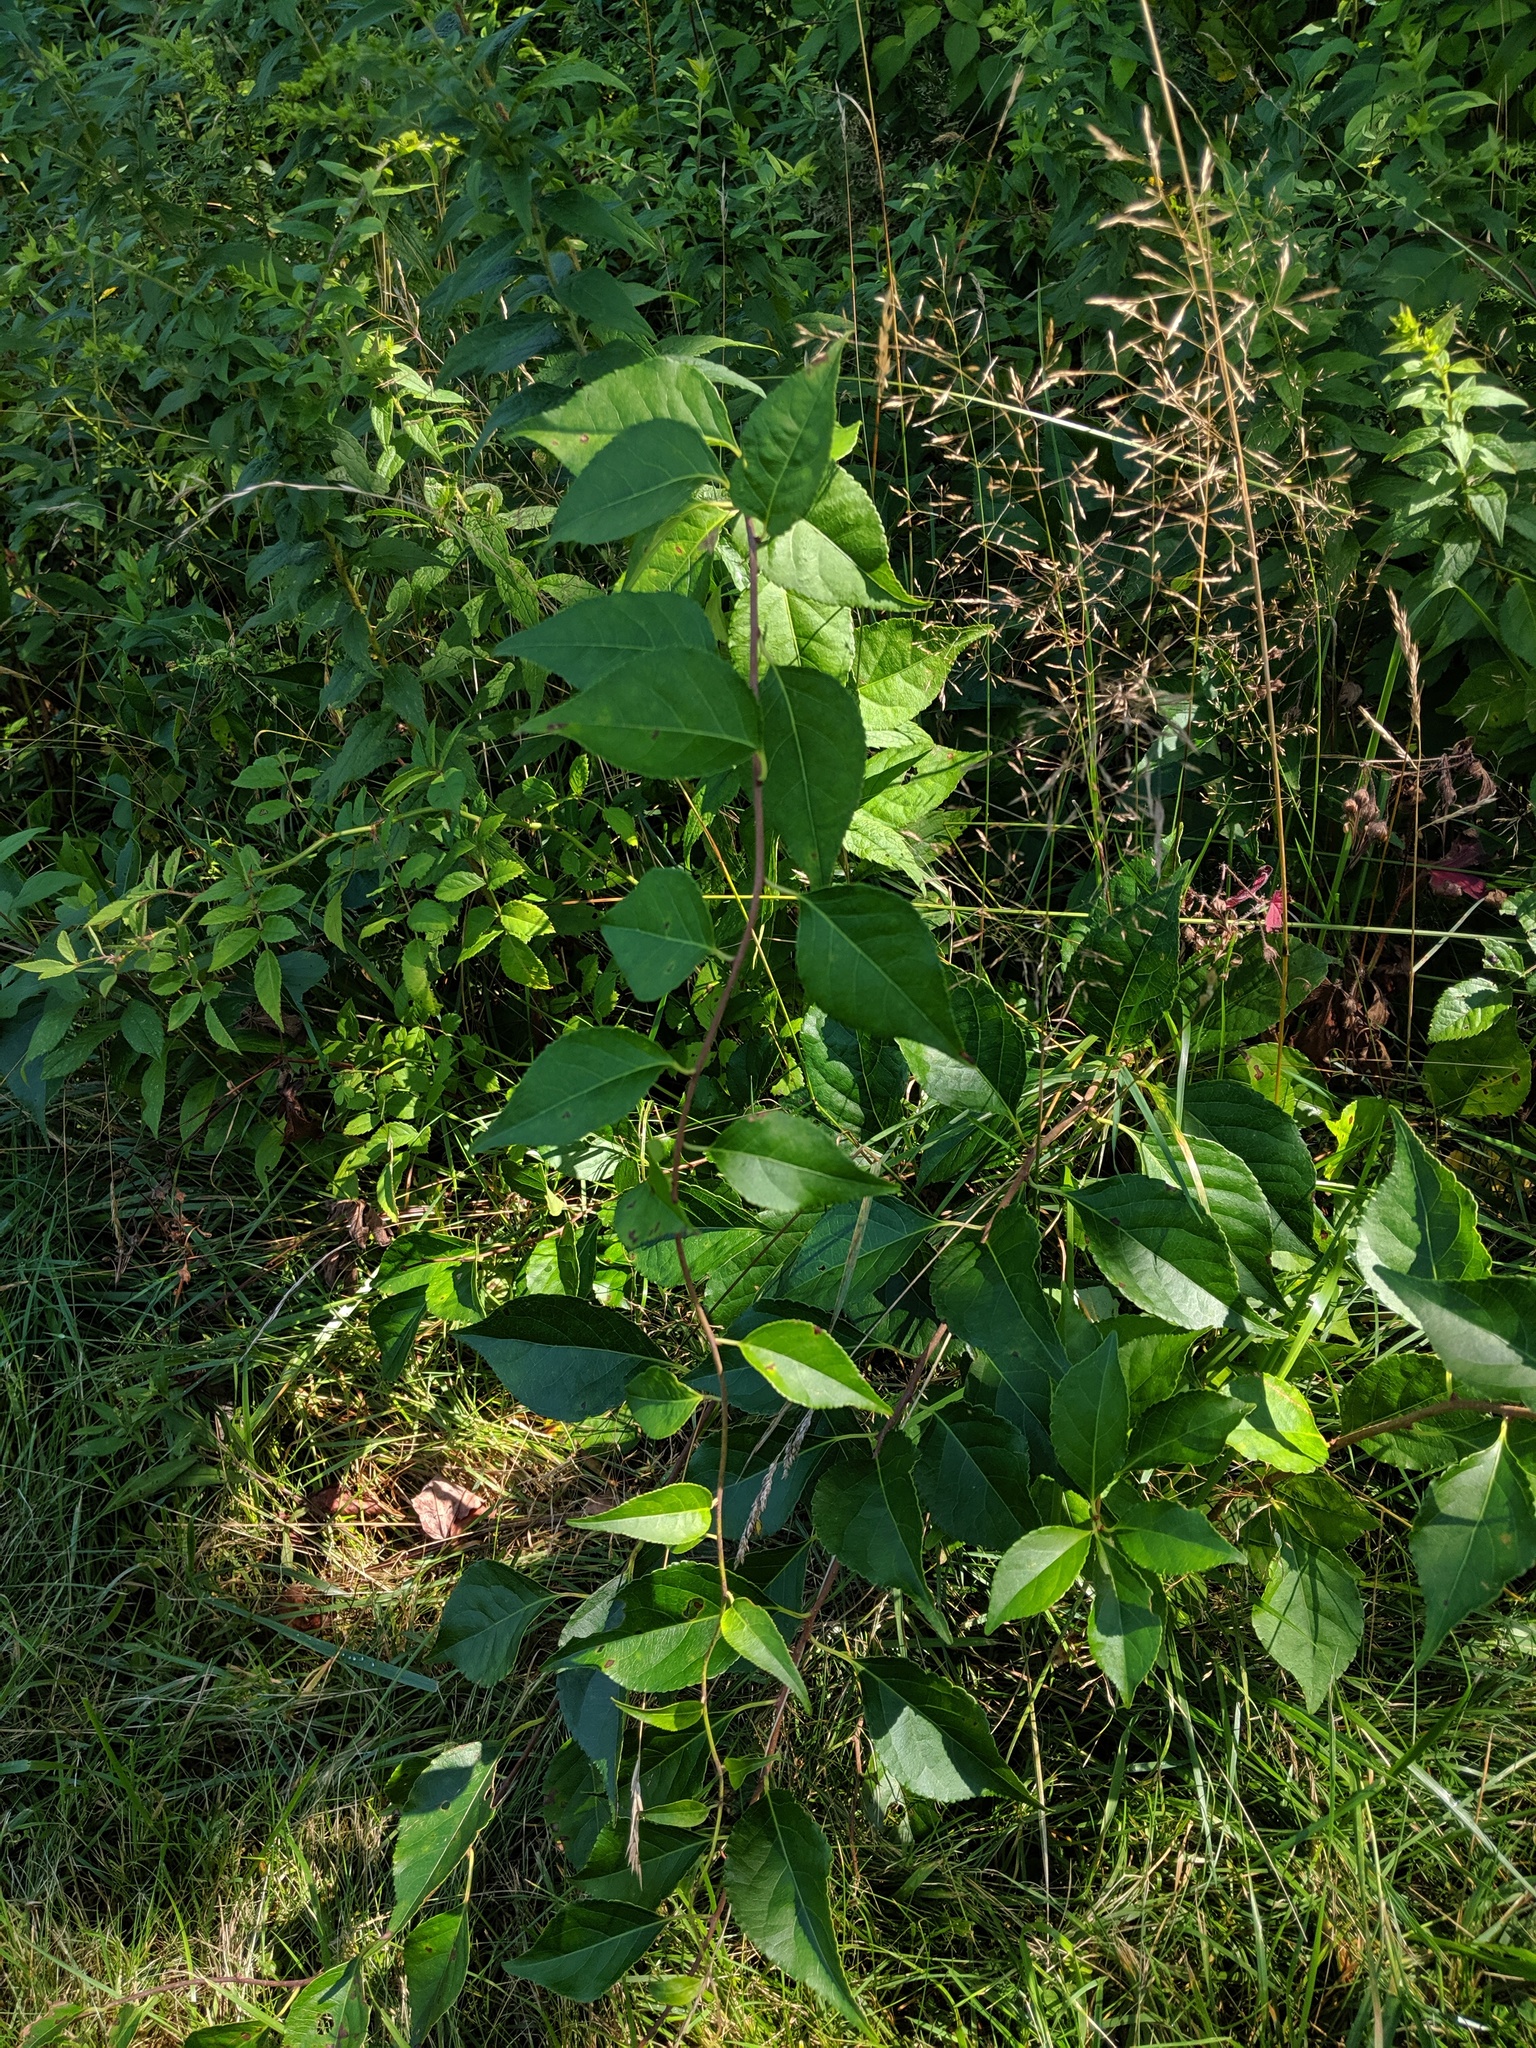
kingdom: Plantae
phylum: Tracheophyta
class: Magnoliopsida
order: Celastrales
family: Celastraceae
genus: Celastrus
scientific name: Celastrus orbiculatus
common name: Oriental bittersweet
